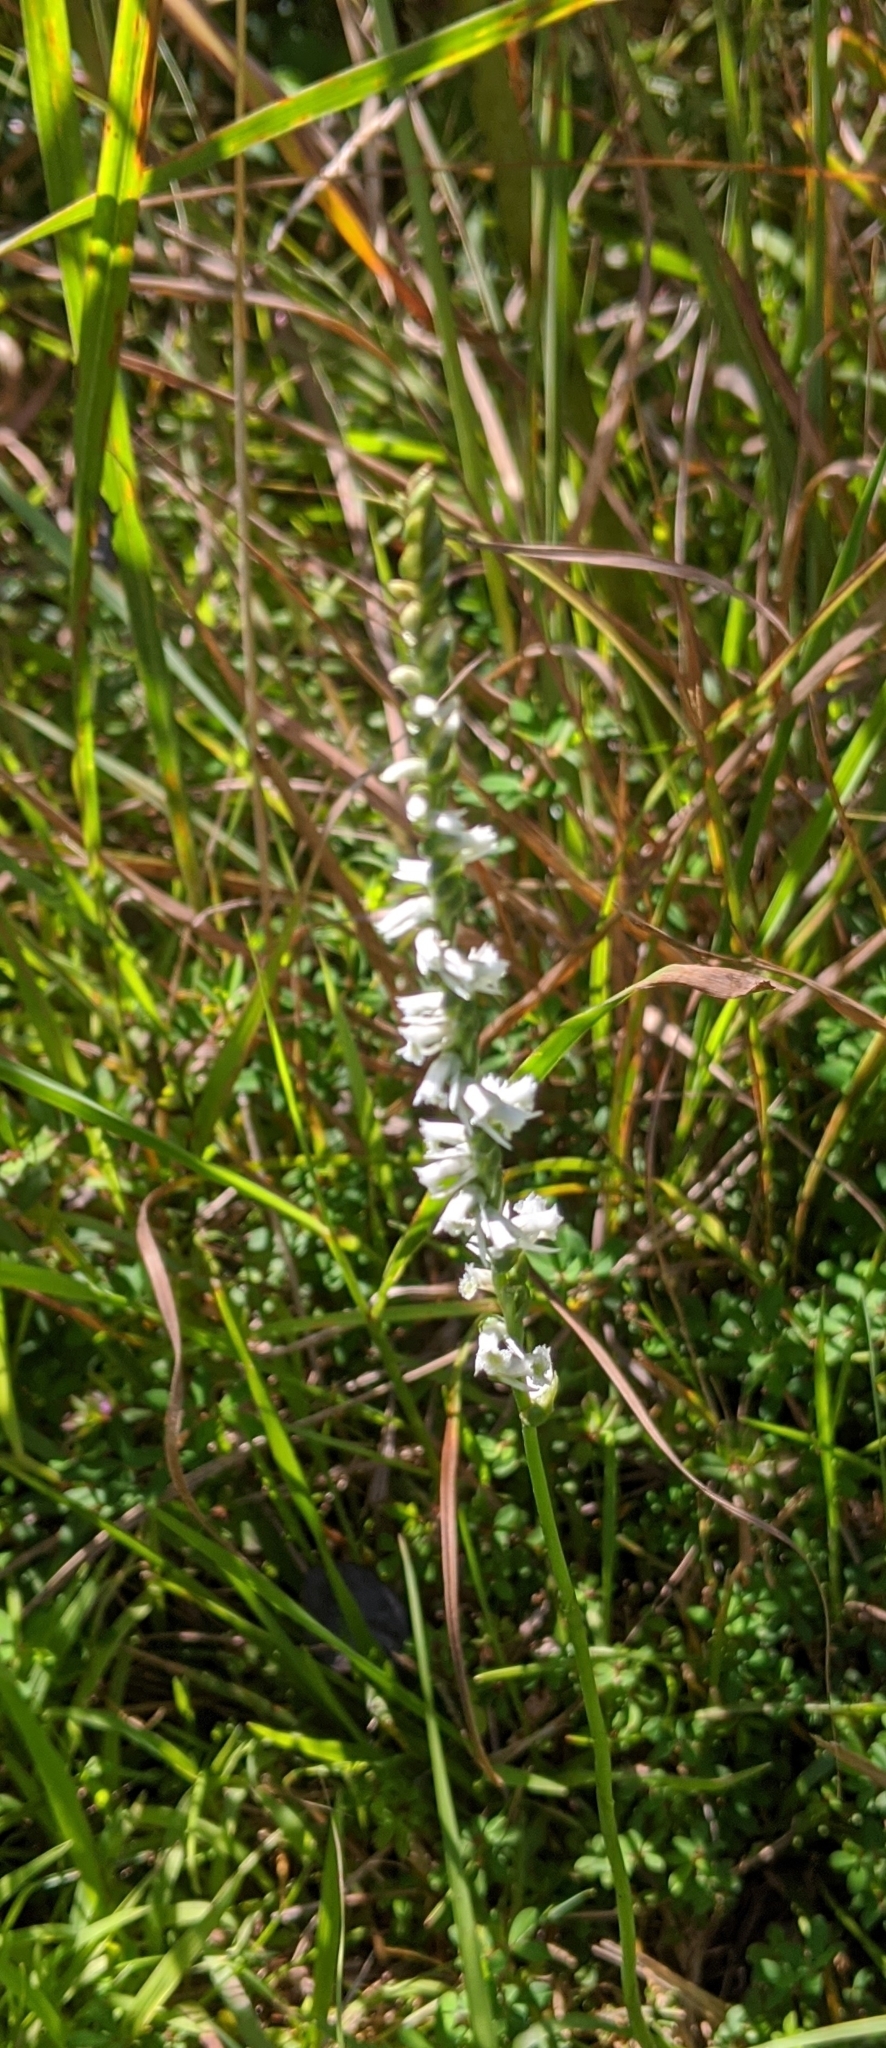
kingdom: Plantae
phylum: Tracheophyta
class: Liliopsida
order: Asparagales
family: Orchidaceae
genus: Spiranthes
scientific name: Spiranthes lacera
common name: Northern slender ladies'-tresses
